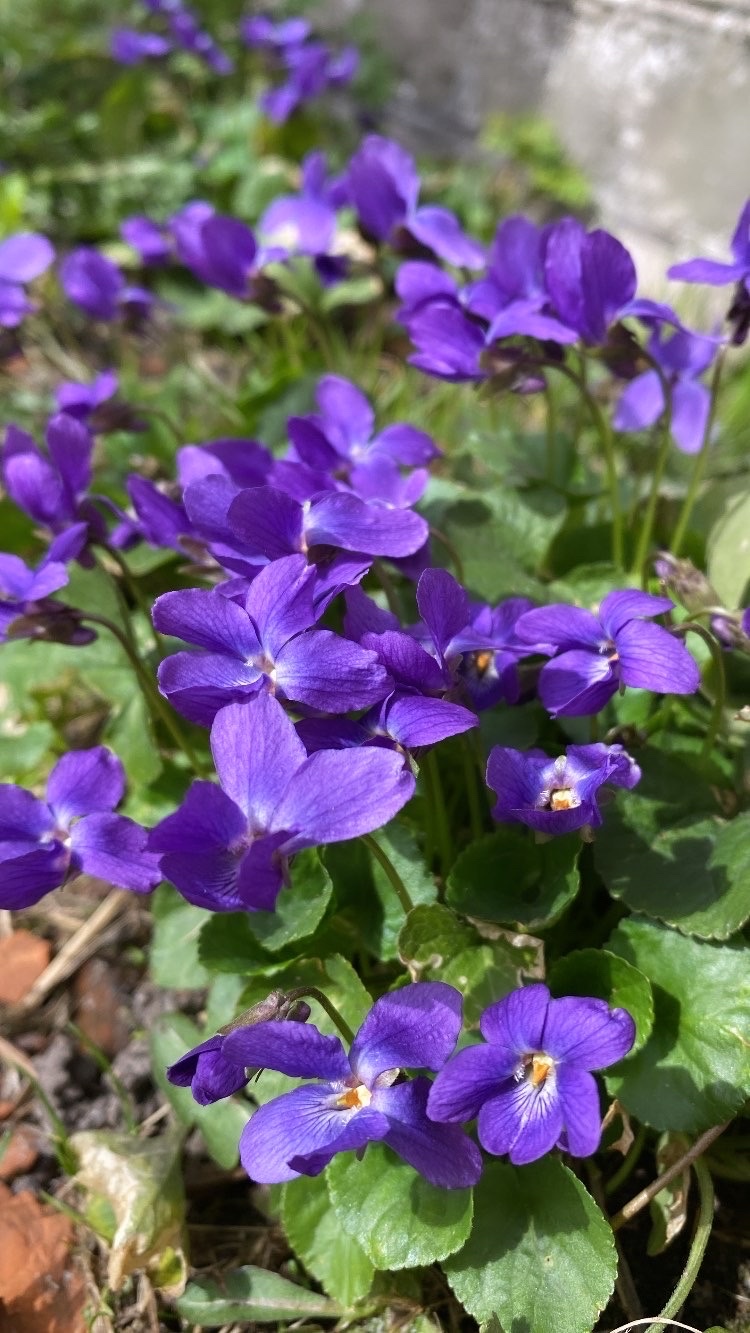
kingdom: Plantae
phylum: Tracheophyta
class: Magnoliopsida
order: Malpighiales
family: Violaceae
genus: Viola
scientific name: Viola odorata
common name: Sweet violet
